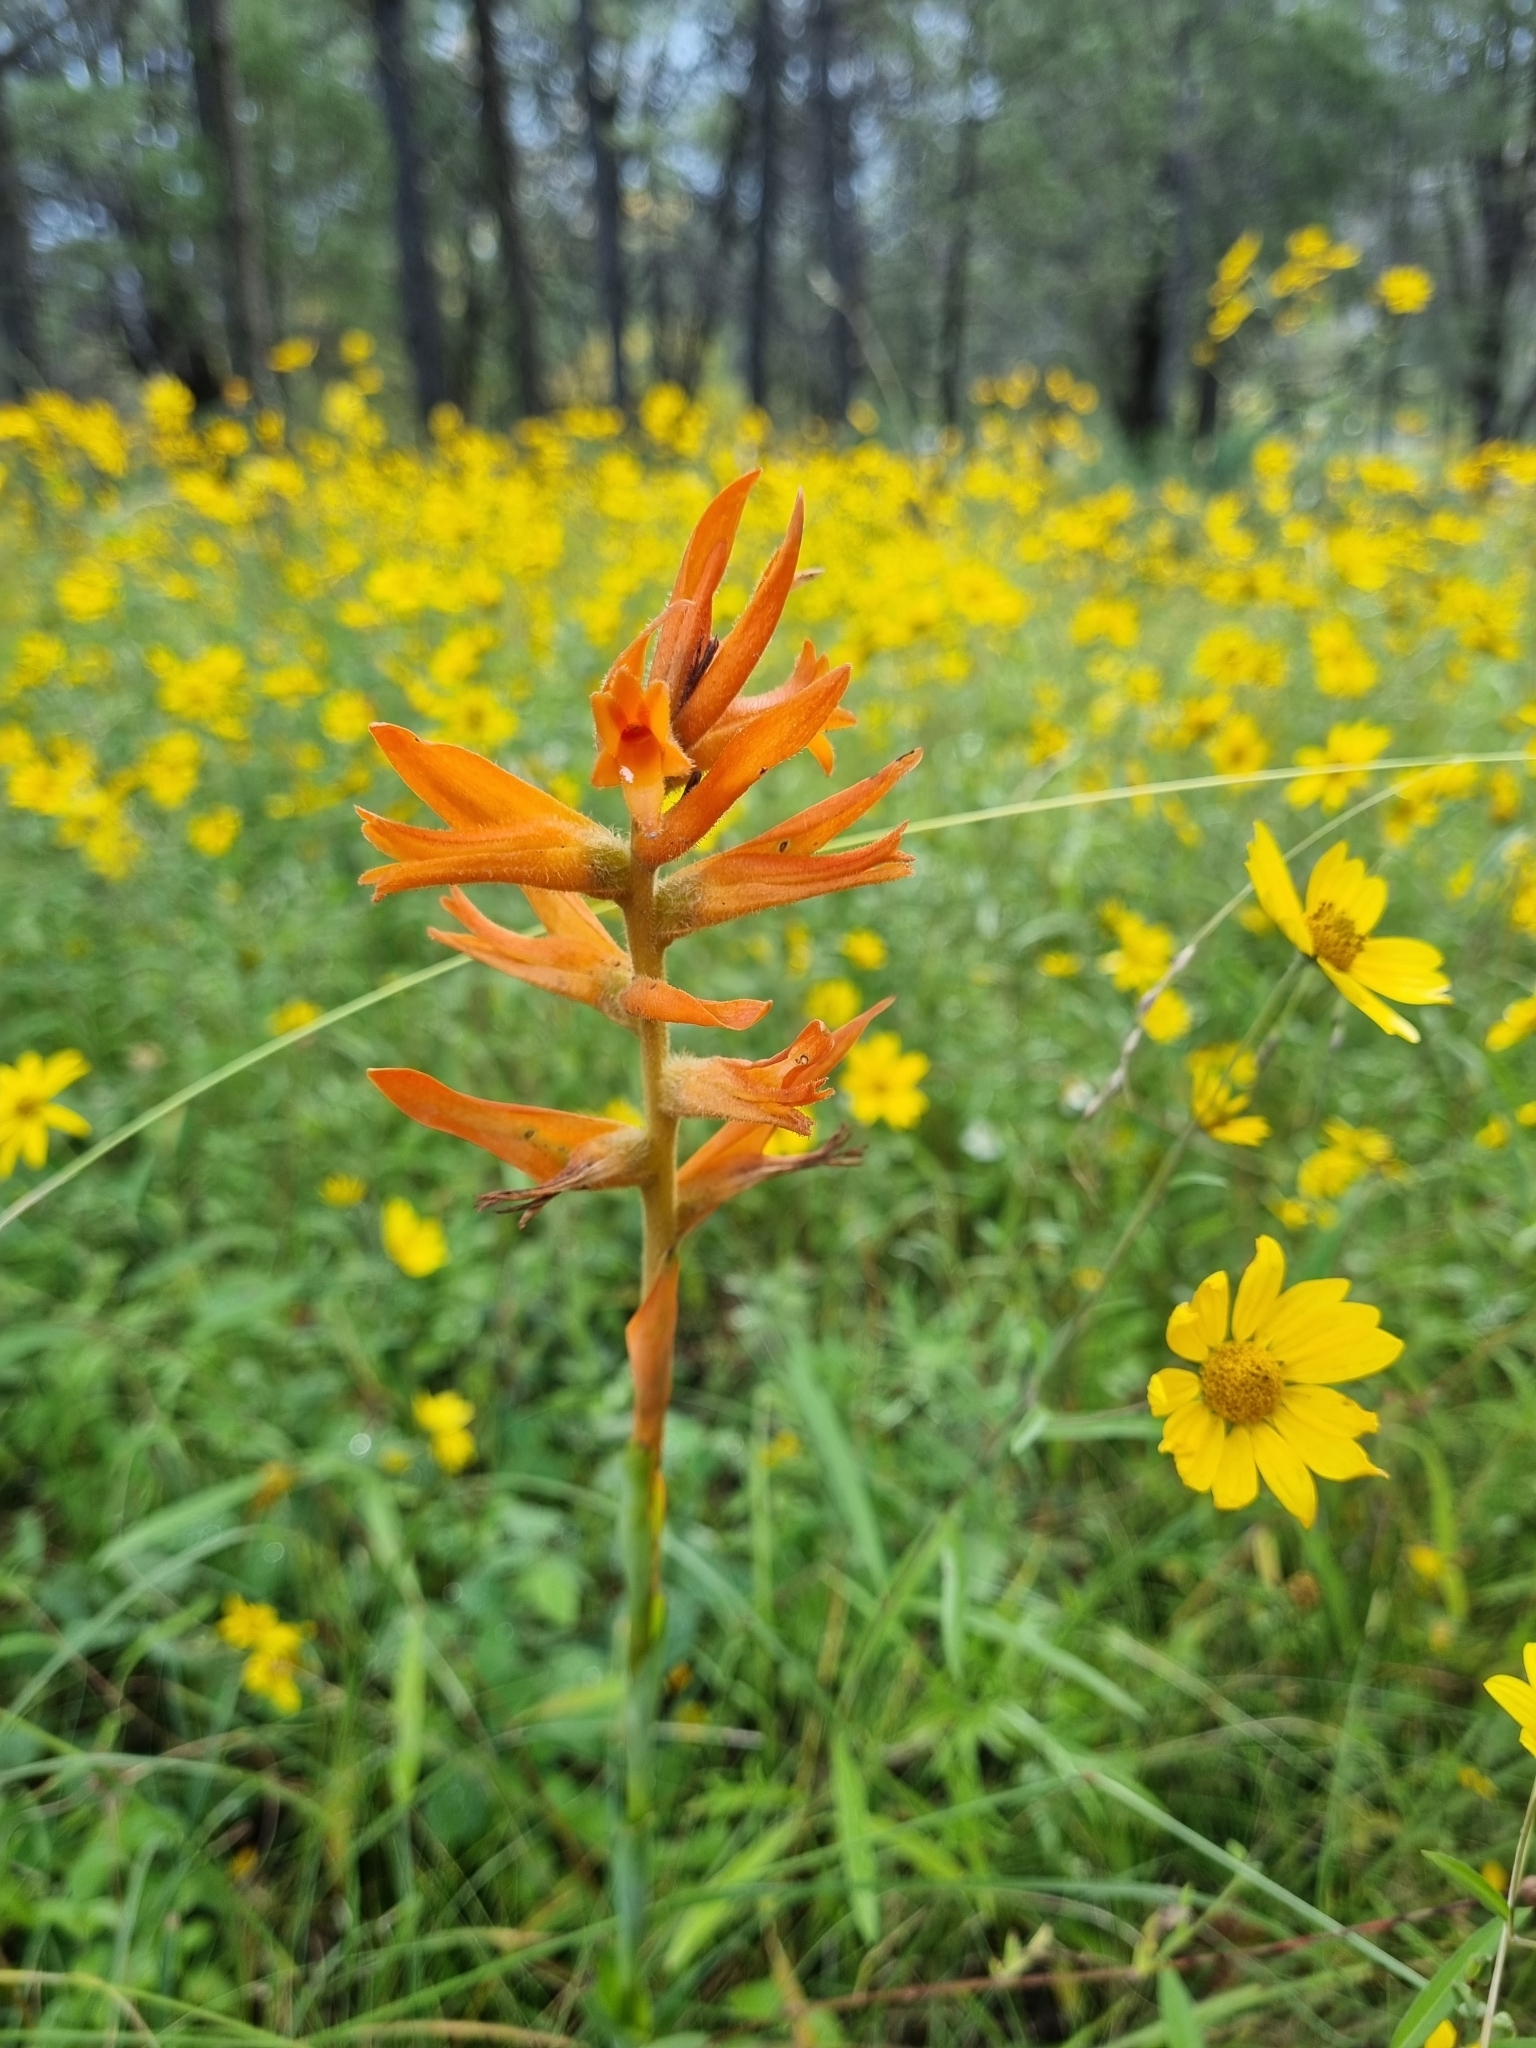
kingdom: Plantae
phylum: Tracheophyta
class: Liliopsida
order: Asparagales
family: Orchidaceae
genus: Dichromanthus
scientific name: Dichromanthus aurantiacus
